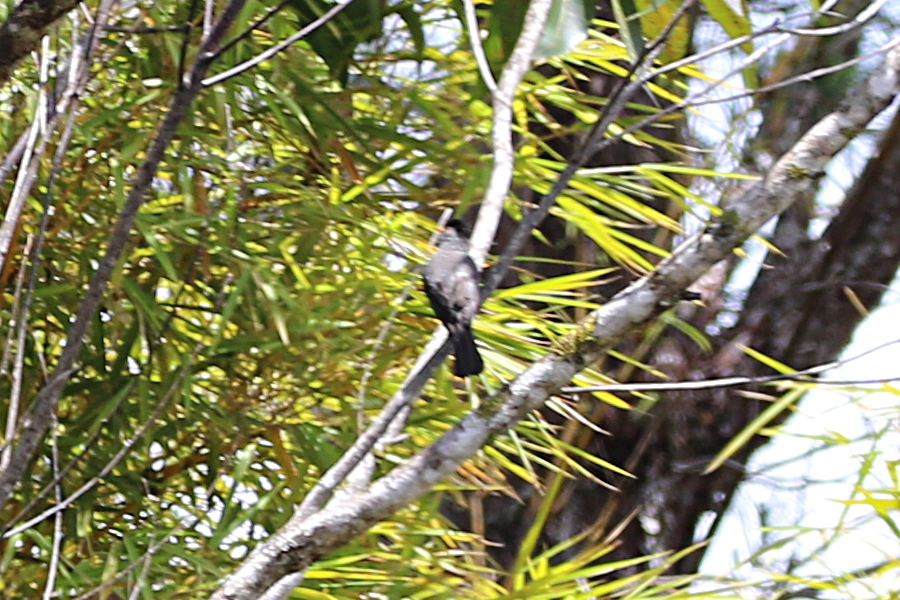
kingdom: Animalia
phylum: Chordata
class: Aves
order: Passeriformes
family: Pycnonotidae
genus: Hypsipetes
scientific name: Hypsipetes madagascariensis
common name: Malagasy bulbul
